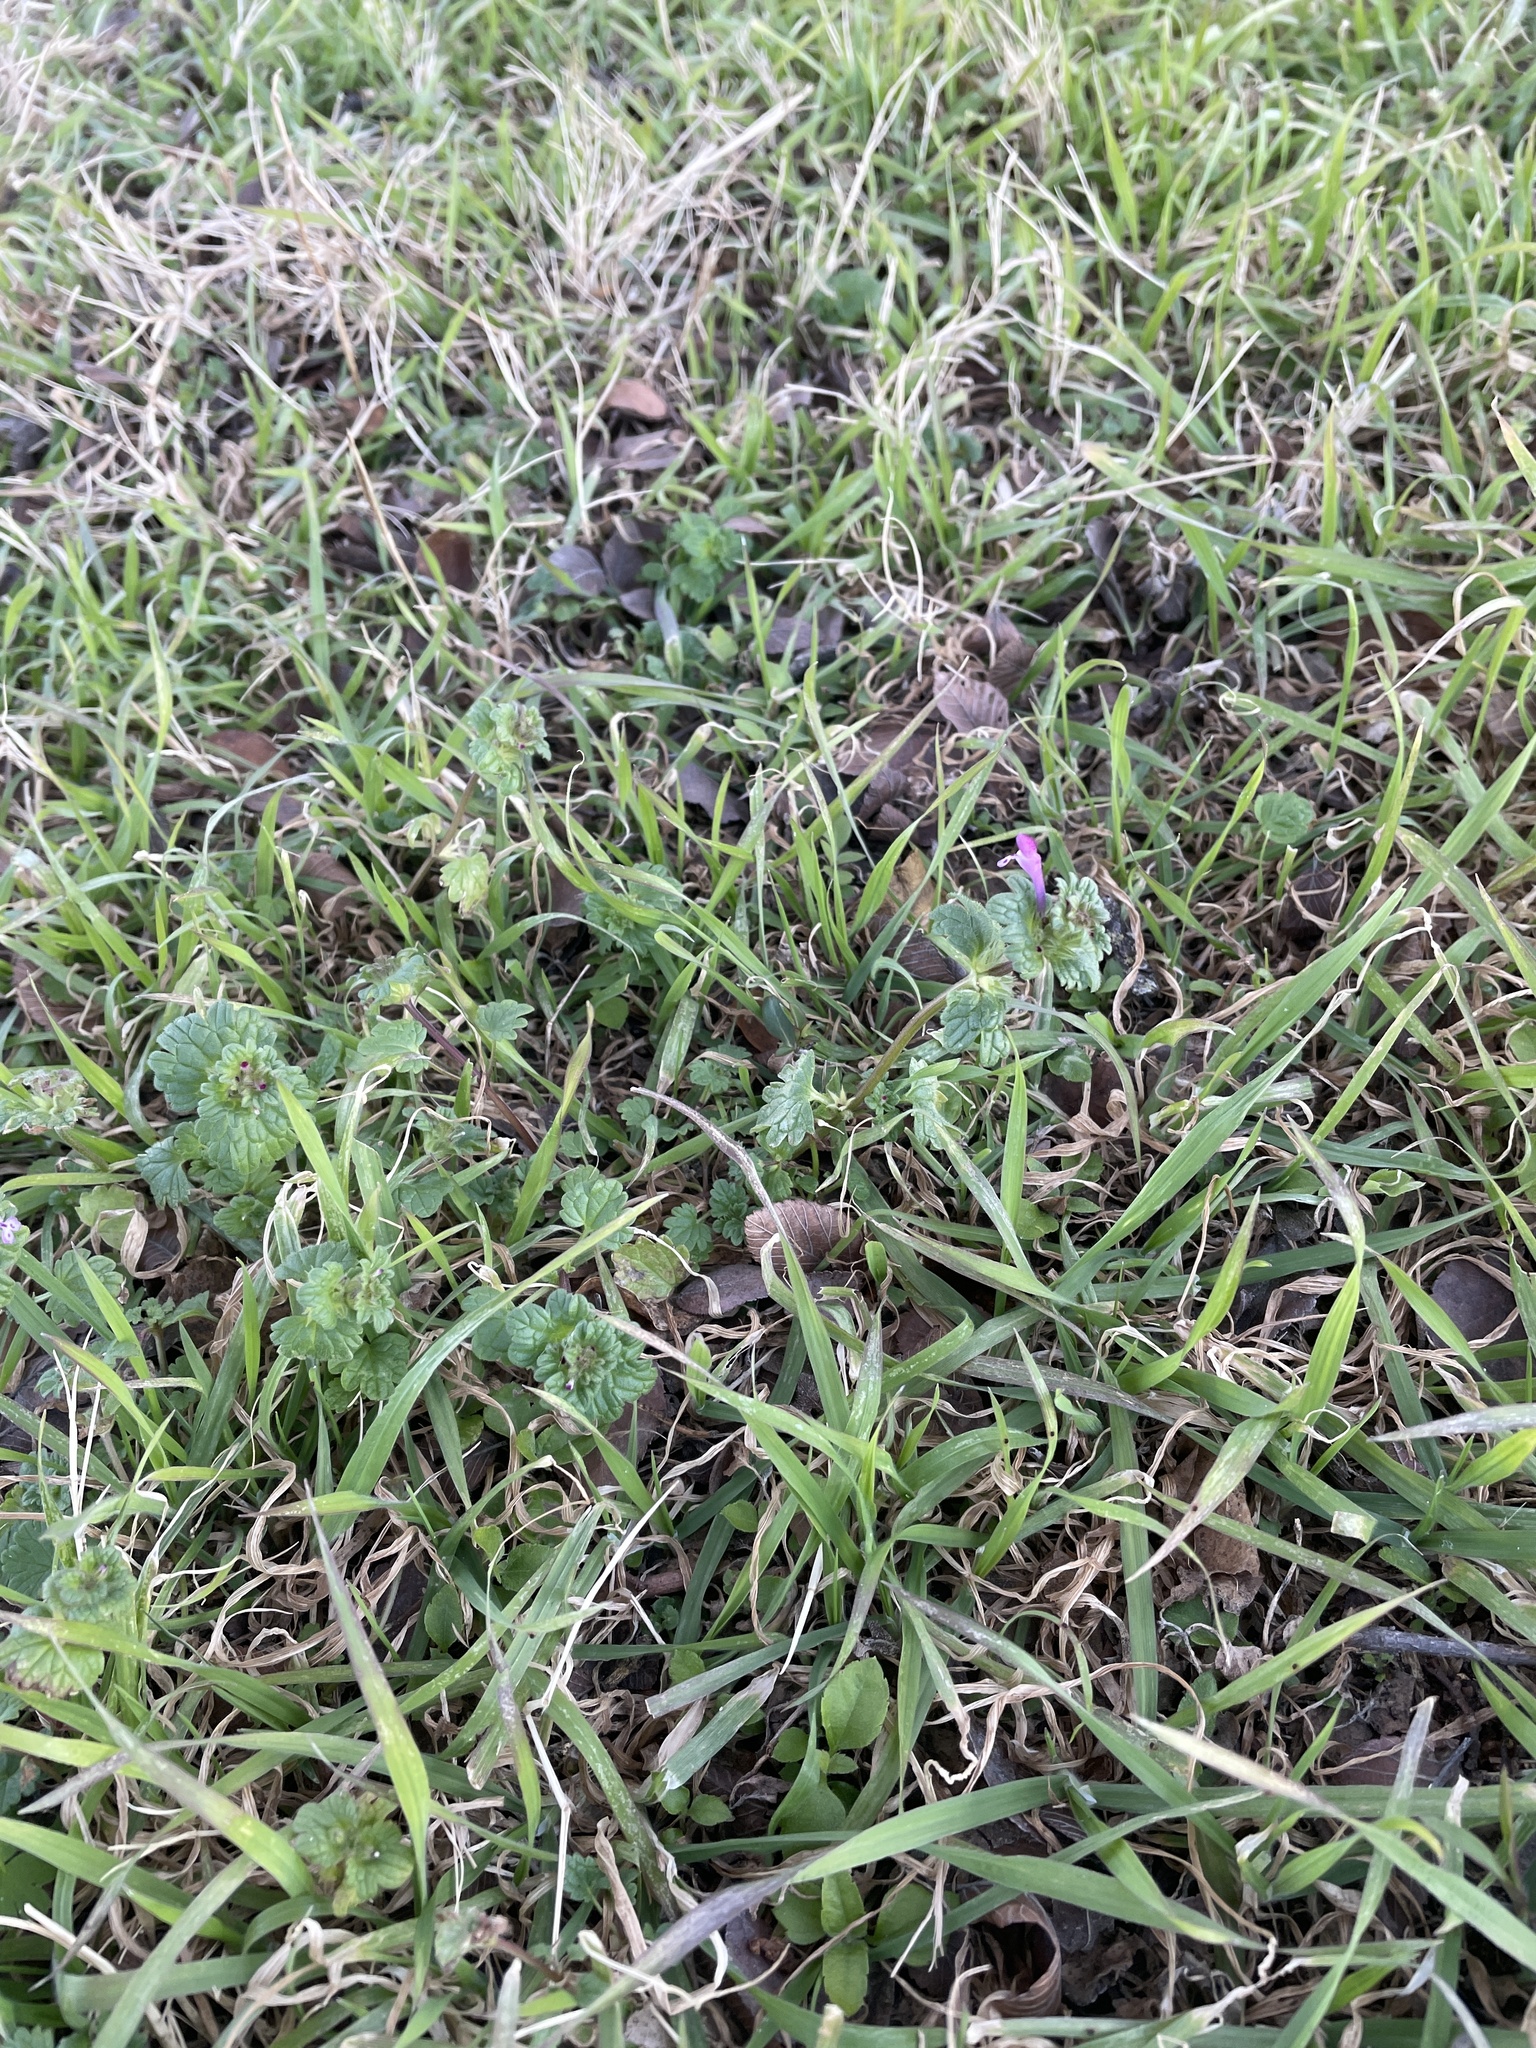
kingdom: Plantae
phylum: Tracheophyta
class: Magnoliopsida
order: Lamiales
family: Lamiaceae
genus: Lamium
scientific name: Lamium amplexicaule
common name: Henbit dead-nettle
